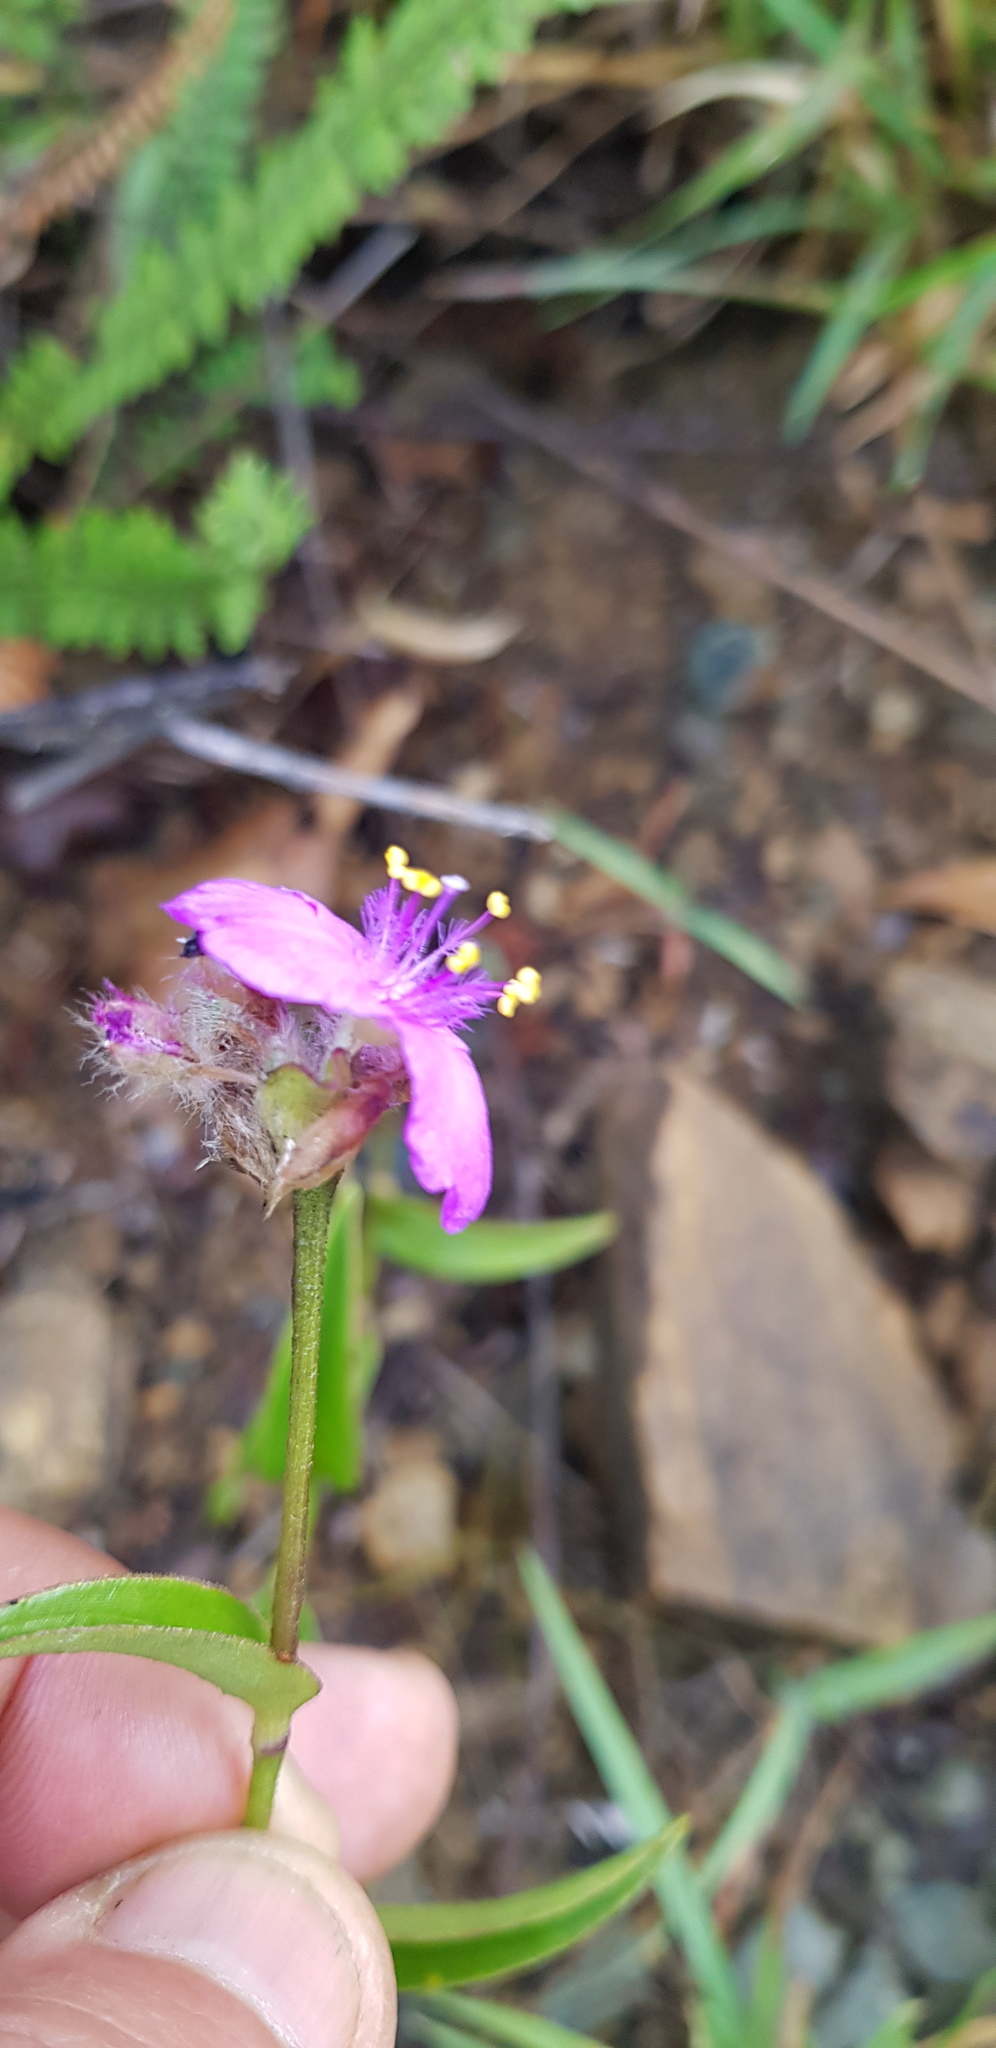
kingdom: Plantae
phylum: Tracheophyta
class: Liliopsida
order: Commelinales
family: Commelinaceae
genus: Callisia
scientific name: Callisia purpurascens
